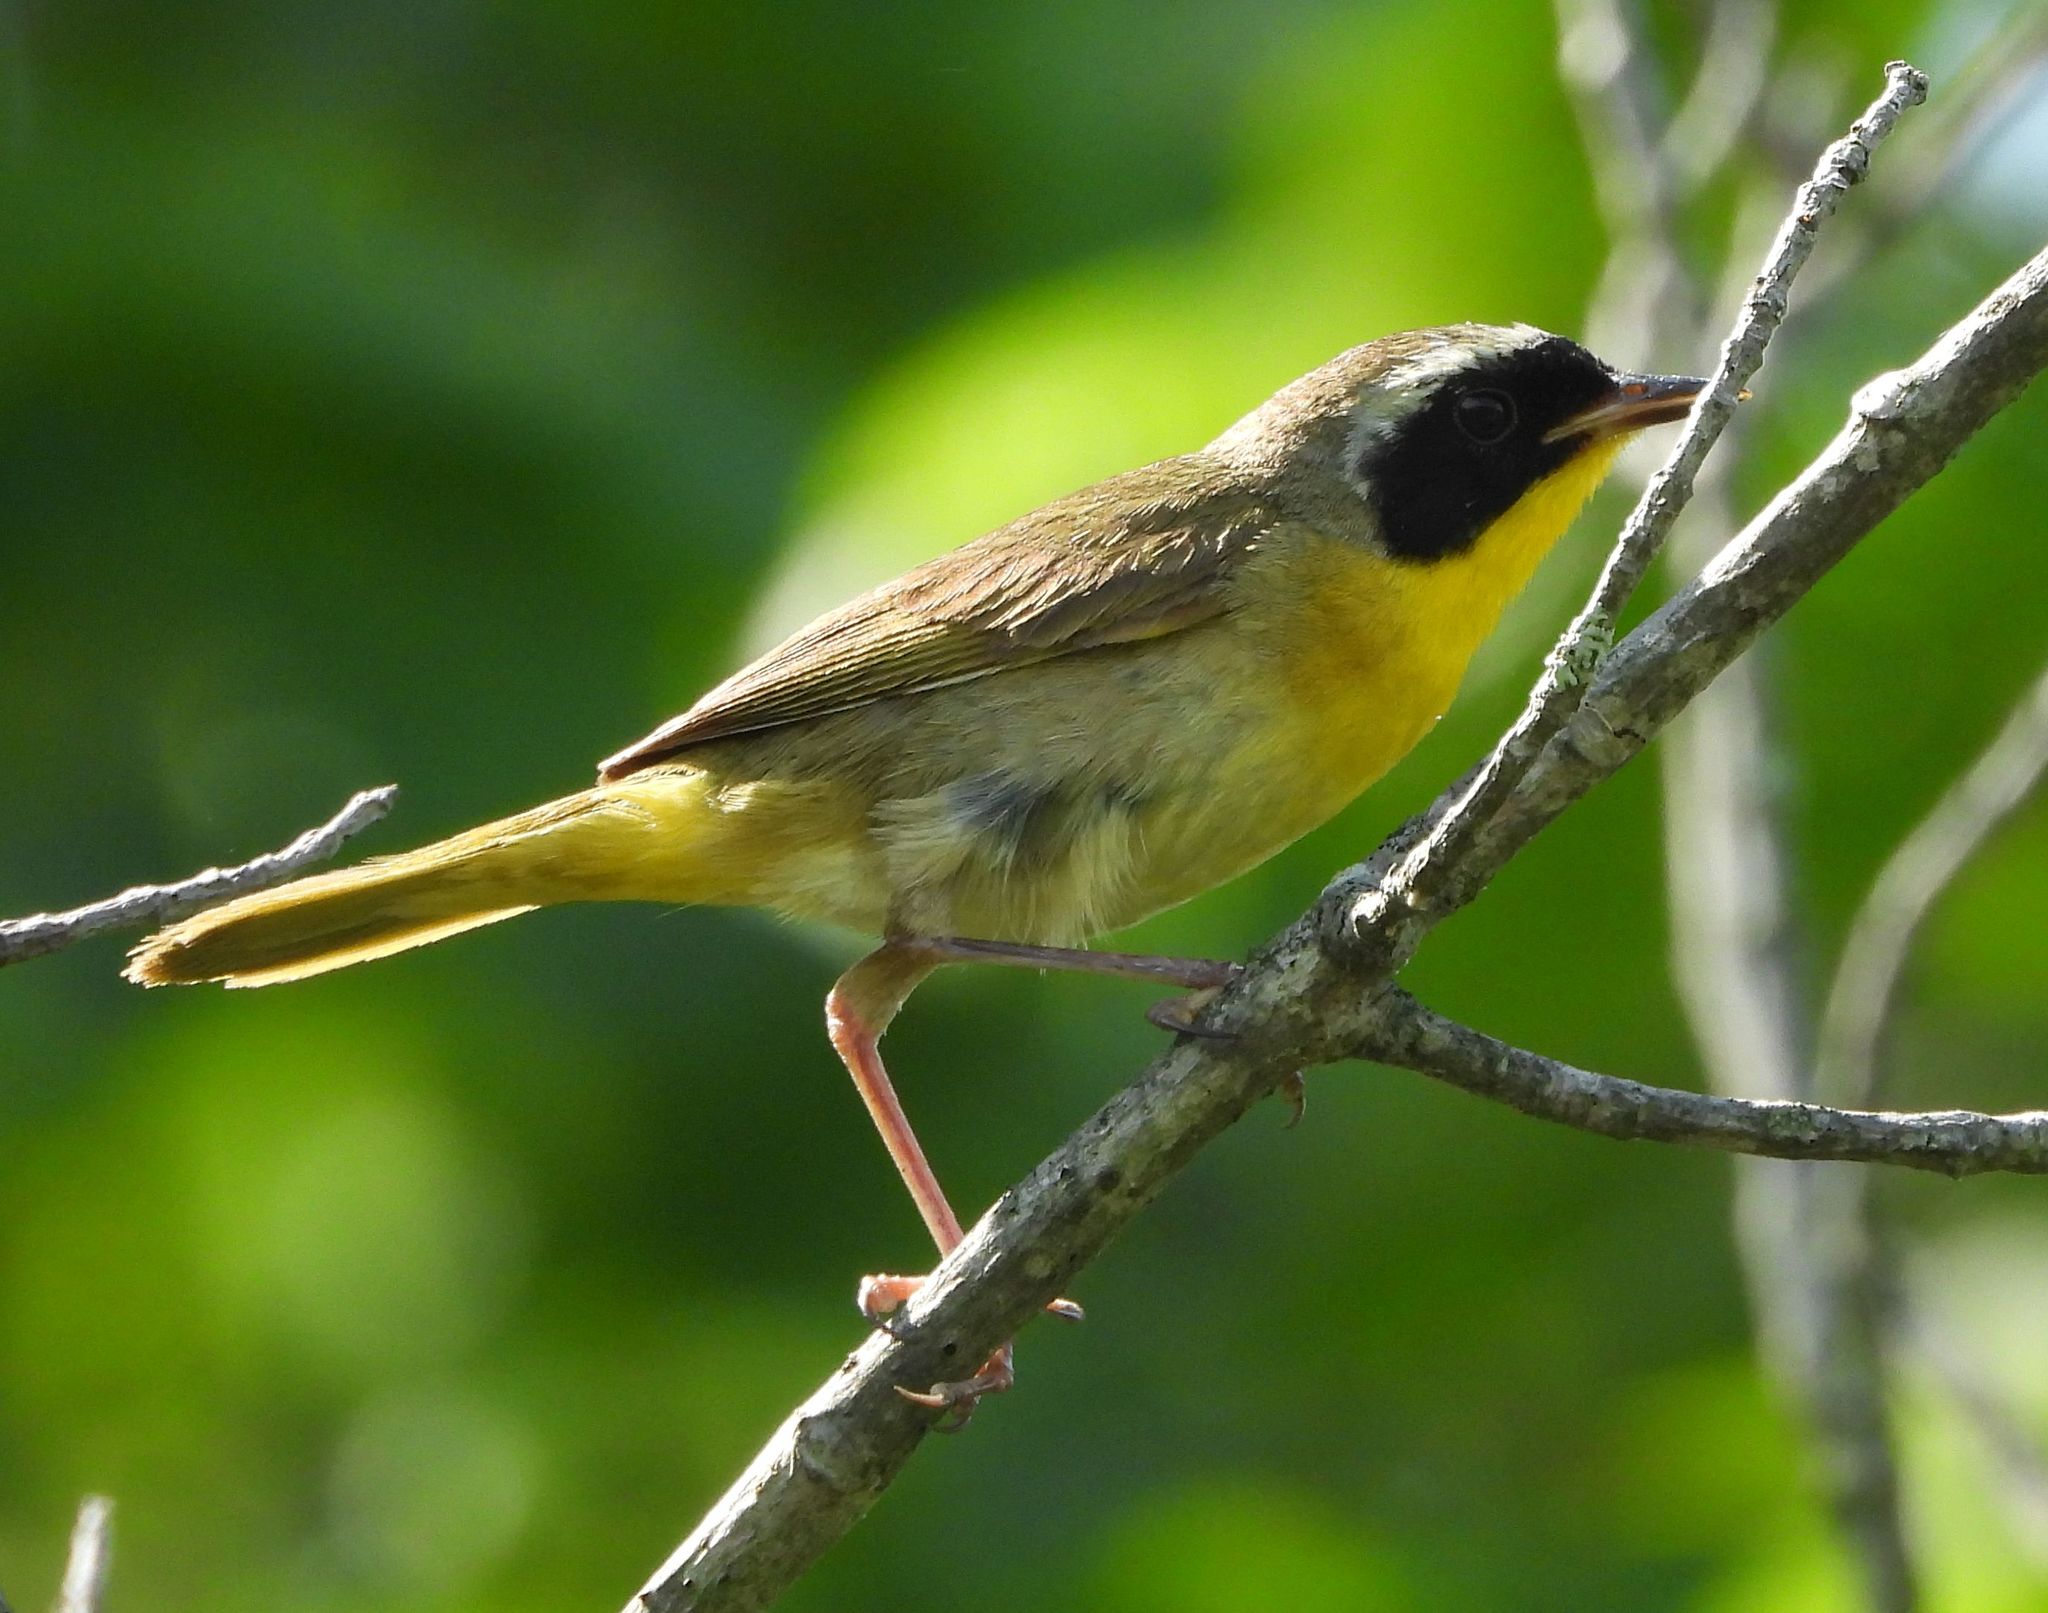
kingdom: Animalia
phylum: Chordata
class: Aves
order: Passeriformes
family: Parulidae
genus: Geothlypis
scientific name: Geothlypis trichas
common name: Common yellowthroat
